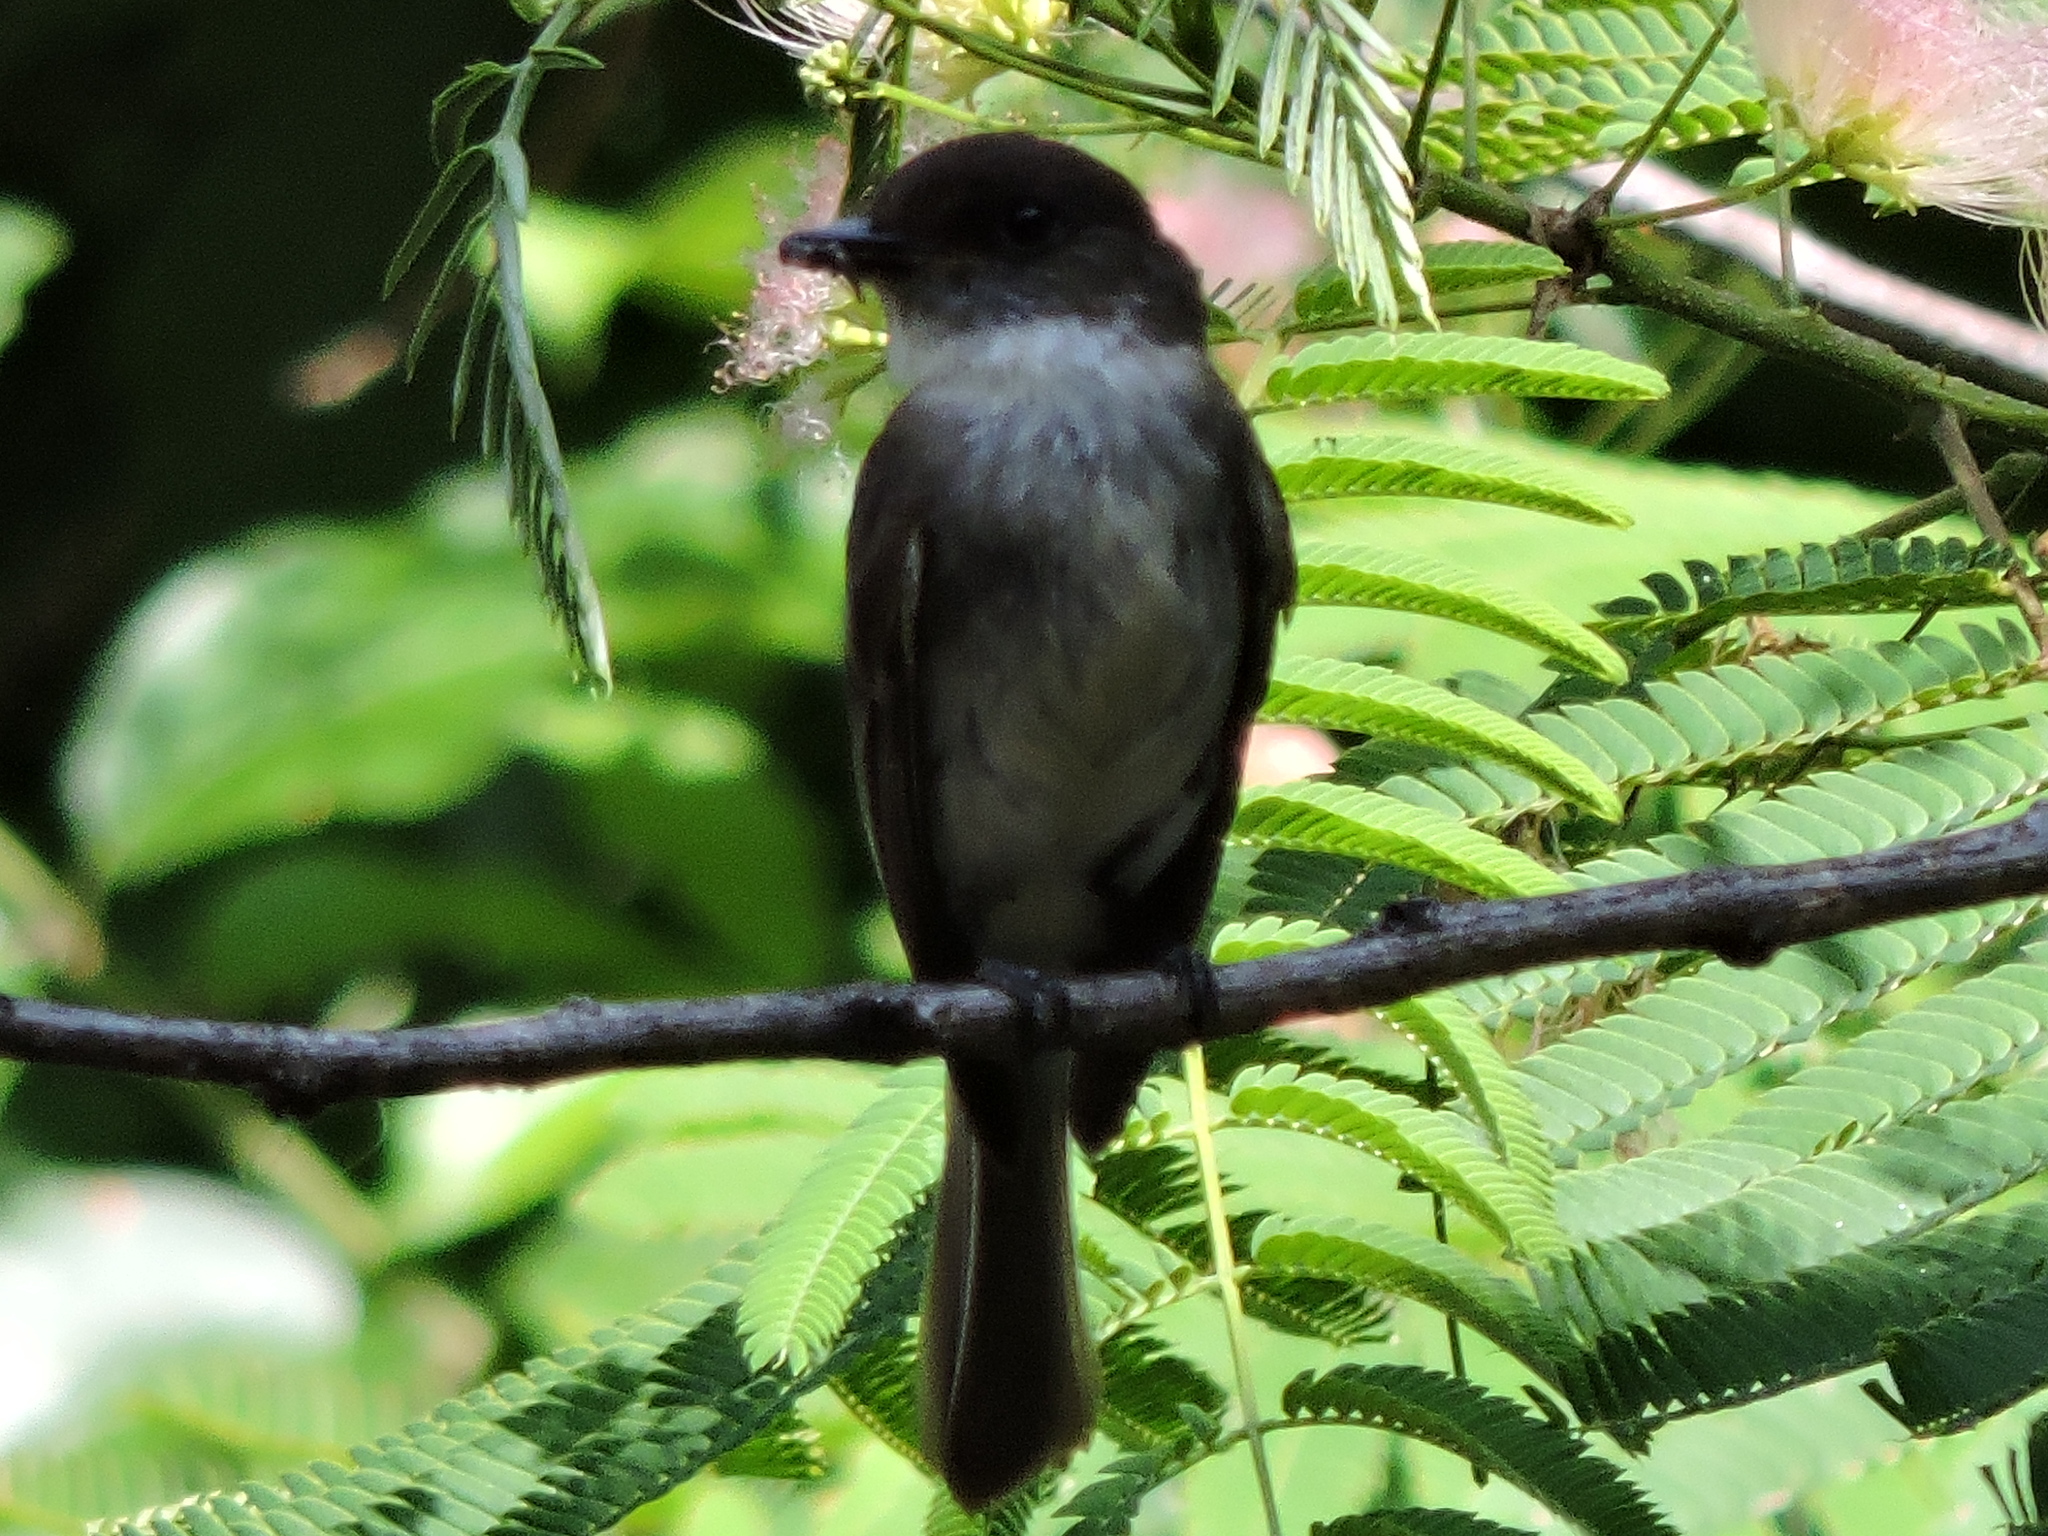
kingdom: Animalia
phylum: Chordata
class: Aves
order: Passeriformes
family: Tyrannidae
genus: Sayornis
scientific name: Sayornis phoebe
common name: Eastern phoebe
